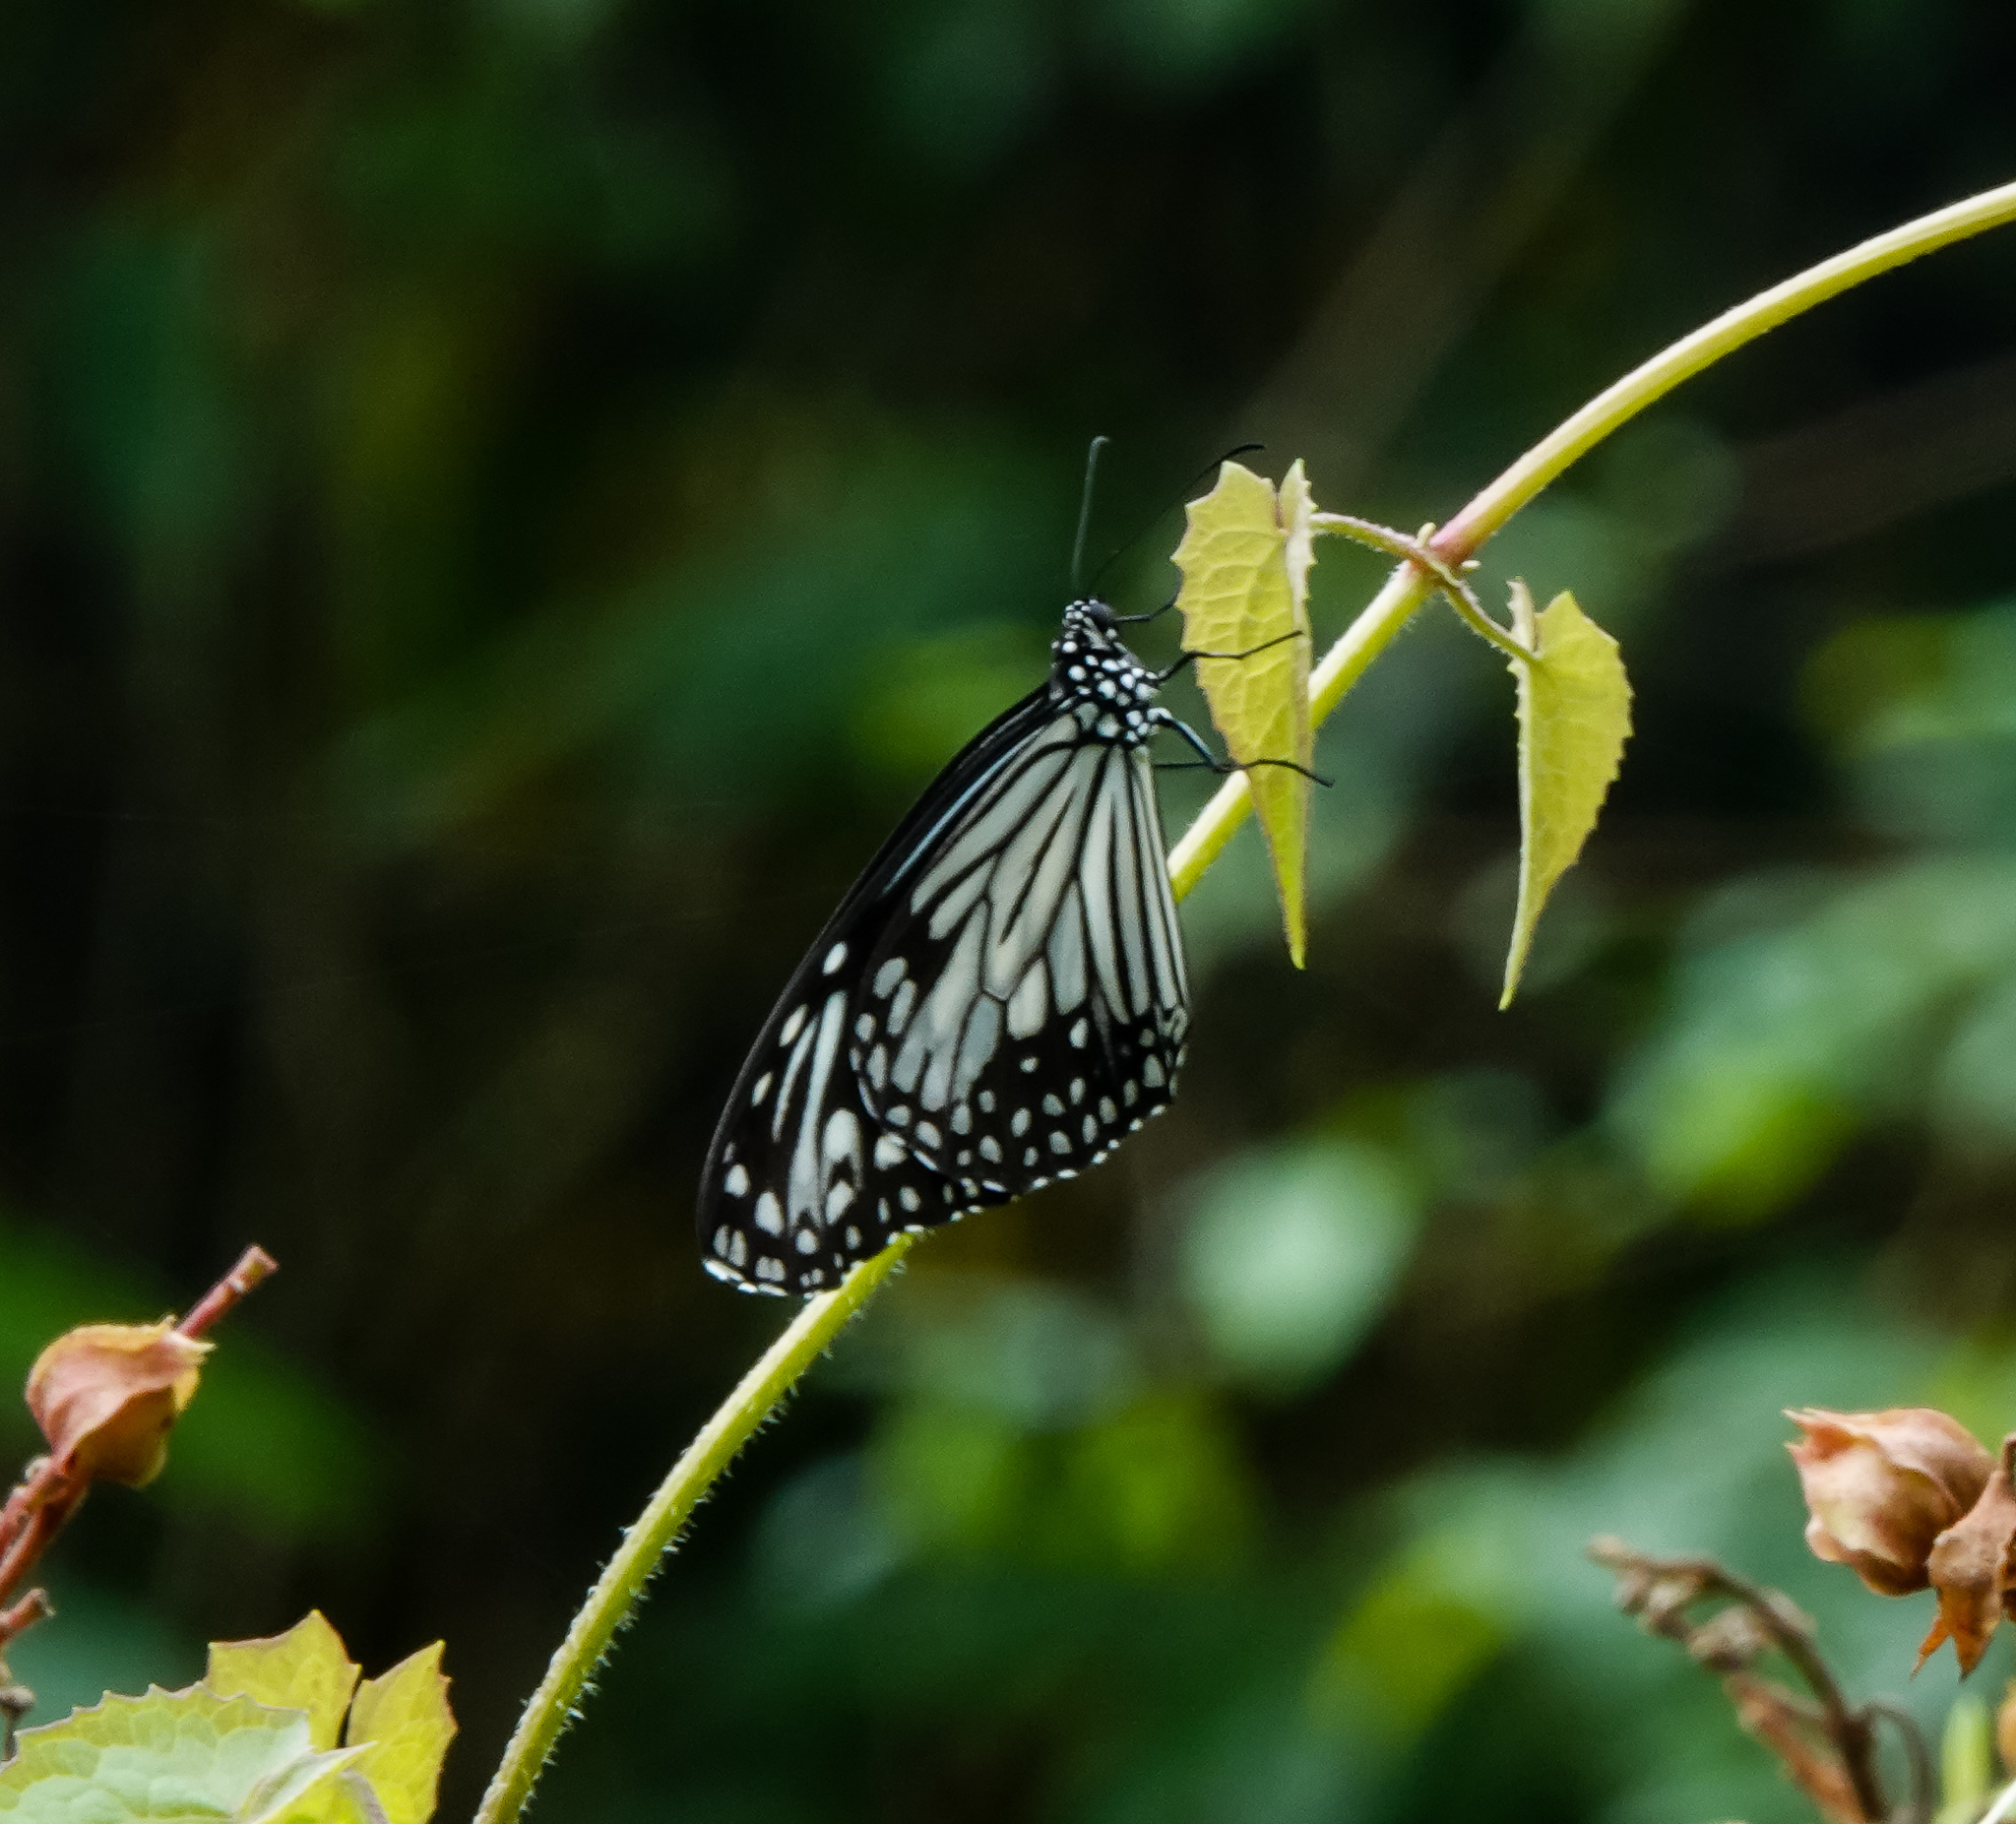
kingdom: Animalia
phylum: Arthropoda
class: Insecta
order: Lepidoptera
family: Nymphalidae
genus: Parantica
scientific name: Parantica aglea
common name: Glassy tiger
